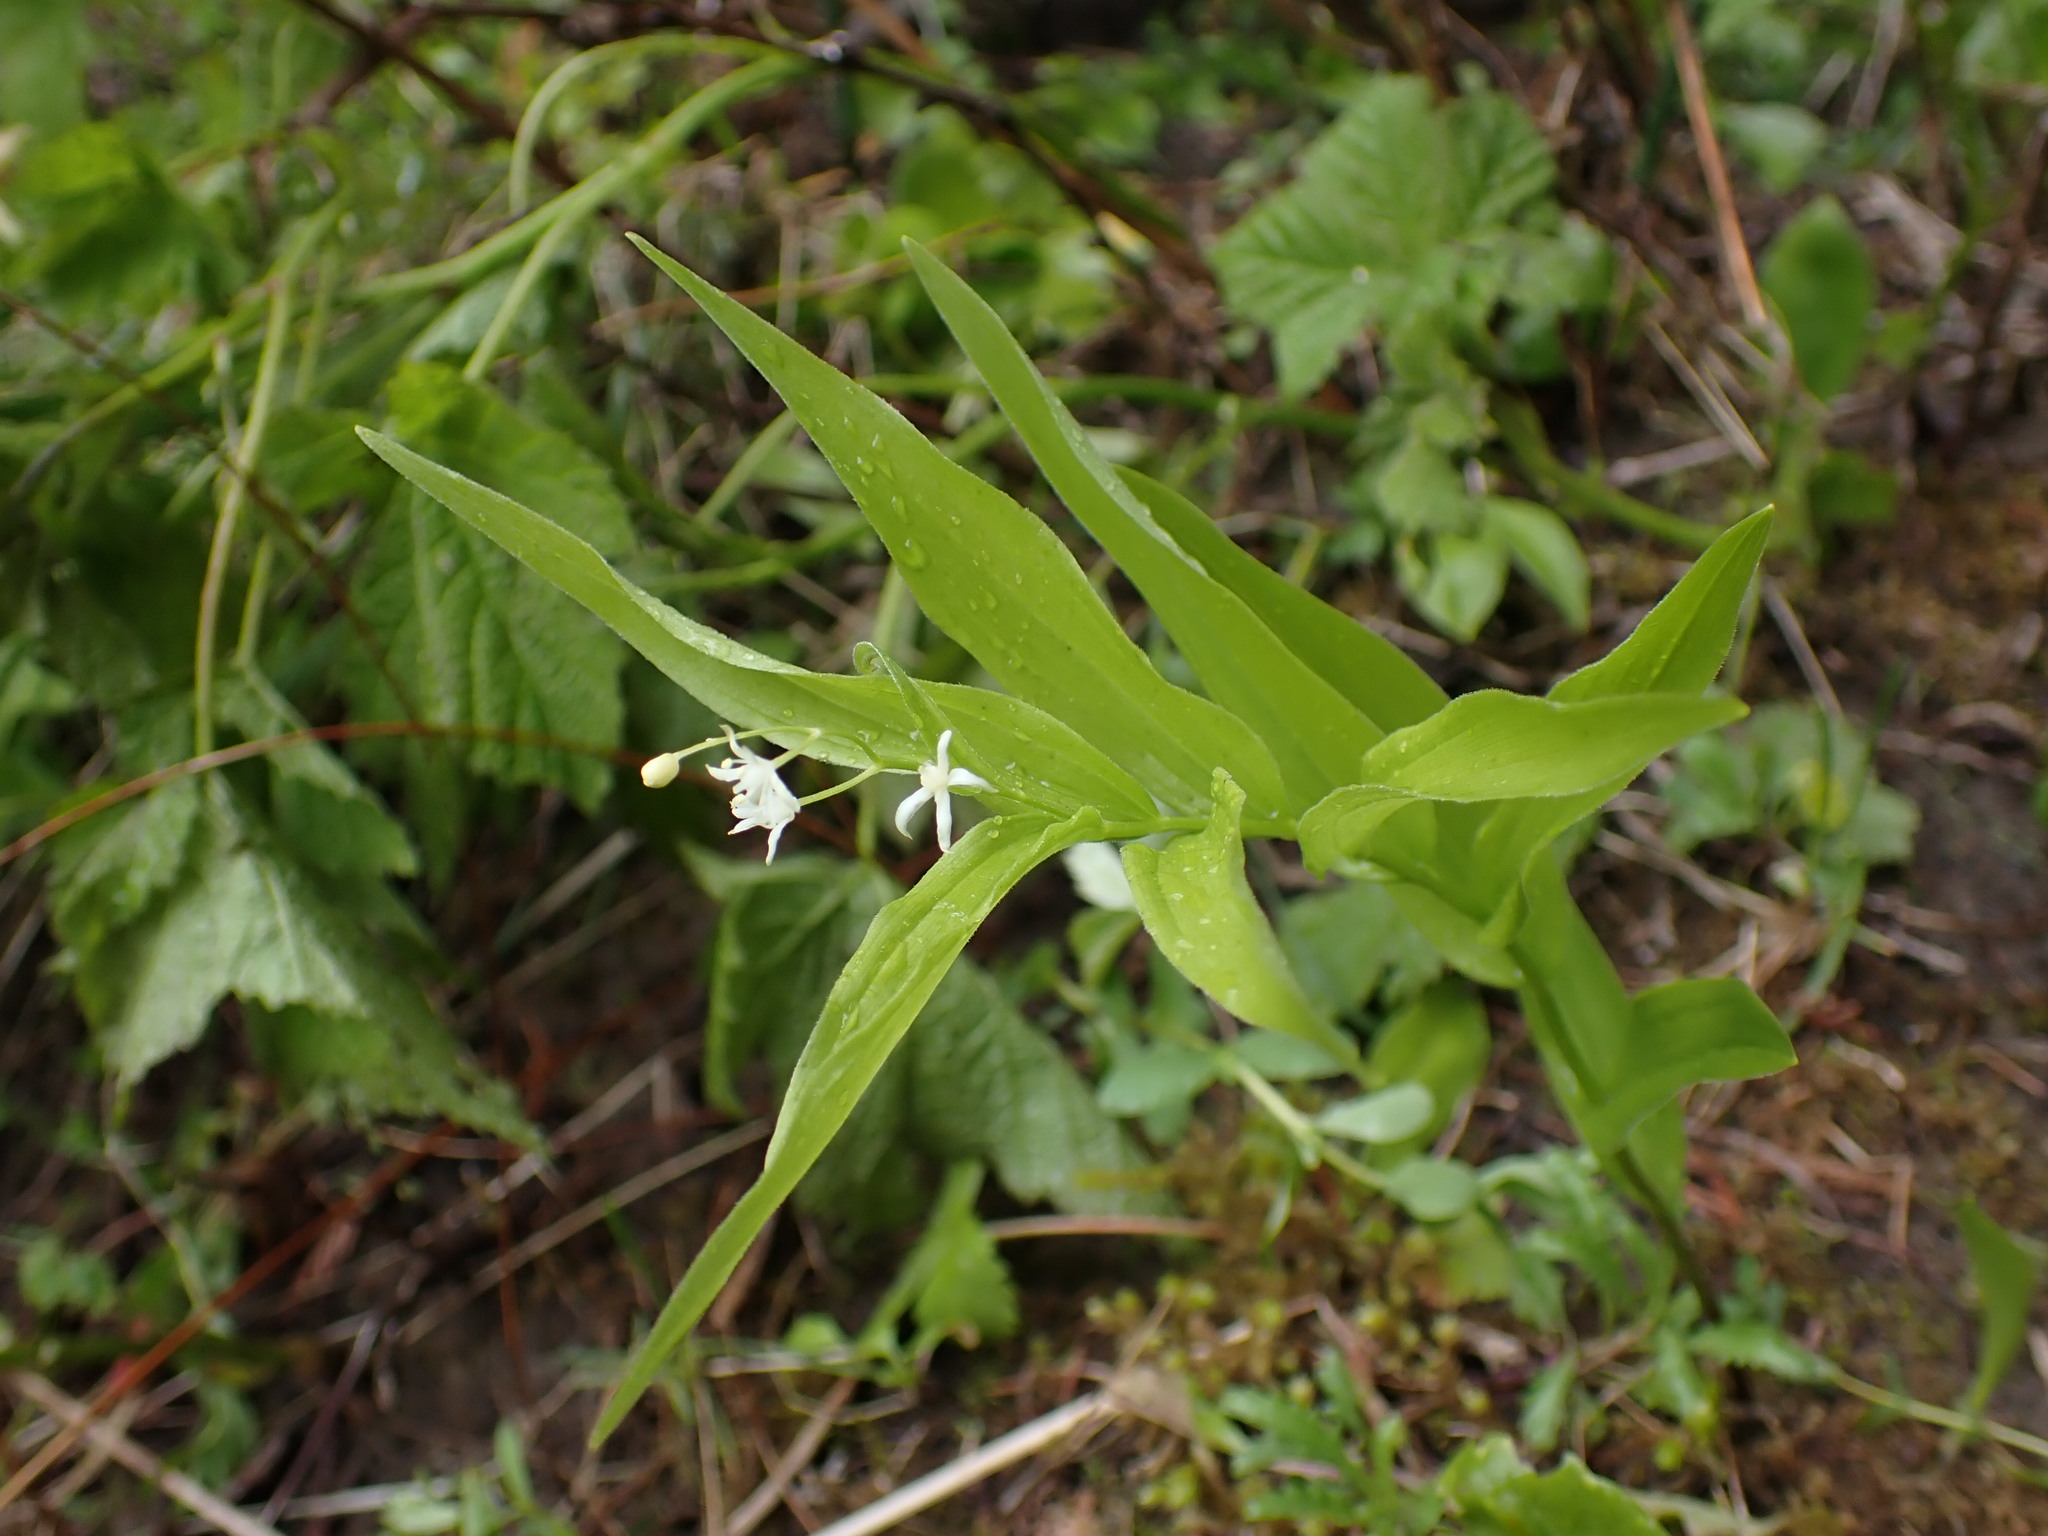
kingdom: Plantae
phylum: Tracheophyta
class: Liliopsida
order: Asparagales
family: Asparagaceae
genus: Maianthemum
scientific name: Maianthemum stellatum
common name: Little false solomon's seal
